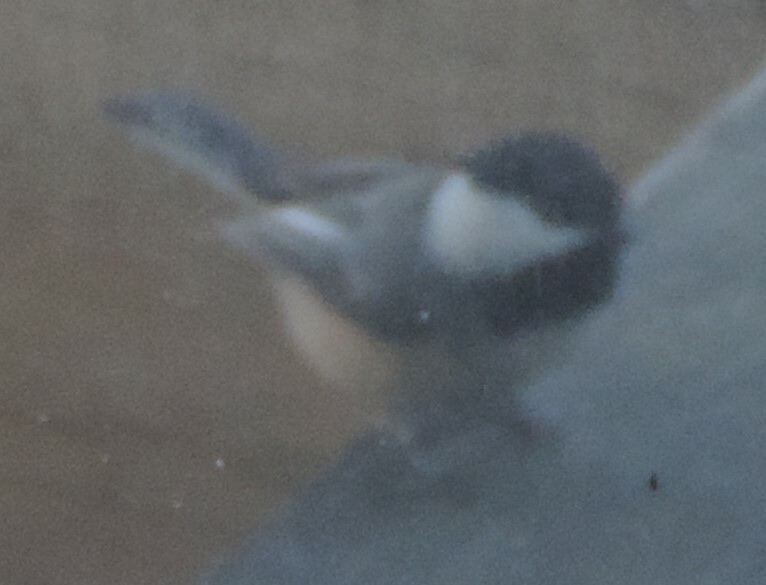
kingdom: Animalia
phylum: Chordata
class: Aves
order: Passeriformes
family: Paridae
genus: Poecile
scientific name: Poecile atricapillus
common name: Black-capped chickadee
